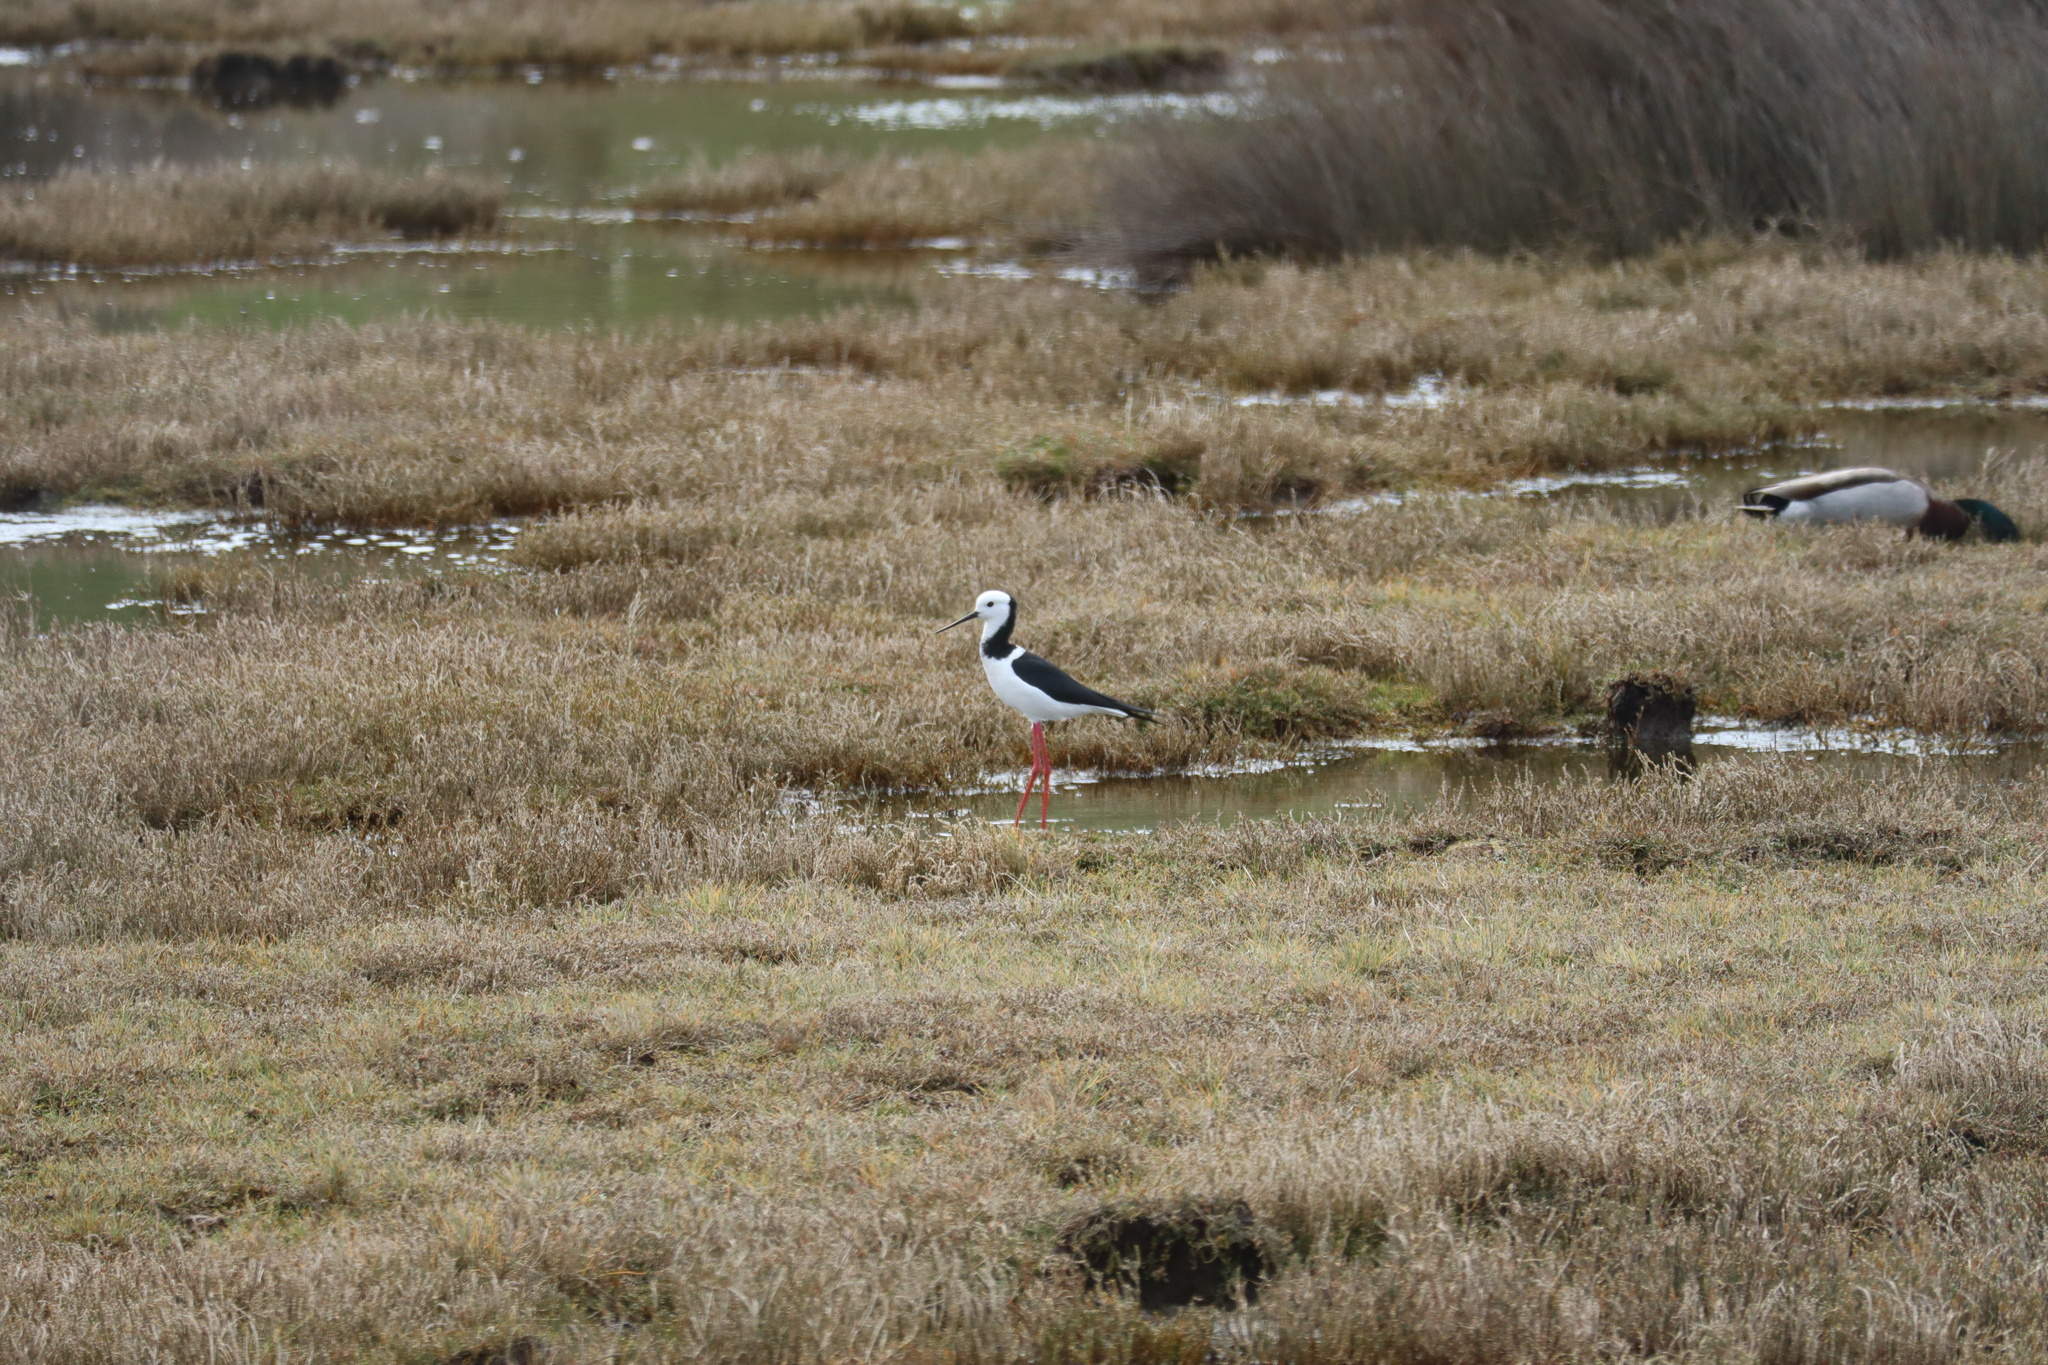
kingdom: Animalia
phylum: Chordata
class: Aves
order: Charadriiformes
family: Recurvirostridae
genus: Himantopus
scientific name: Himantopus leucocephalus
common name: White-headed stilt
